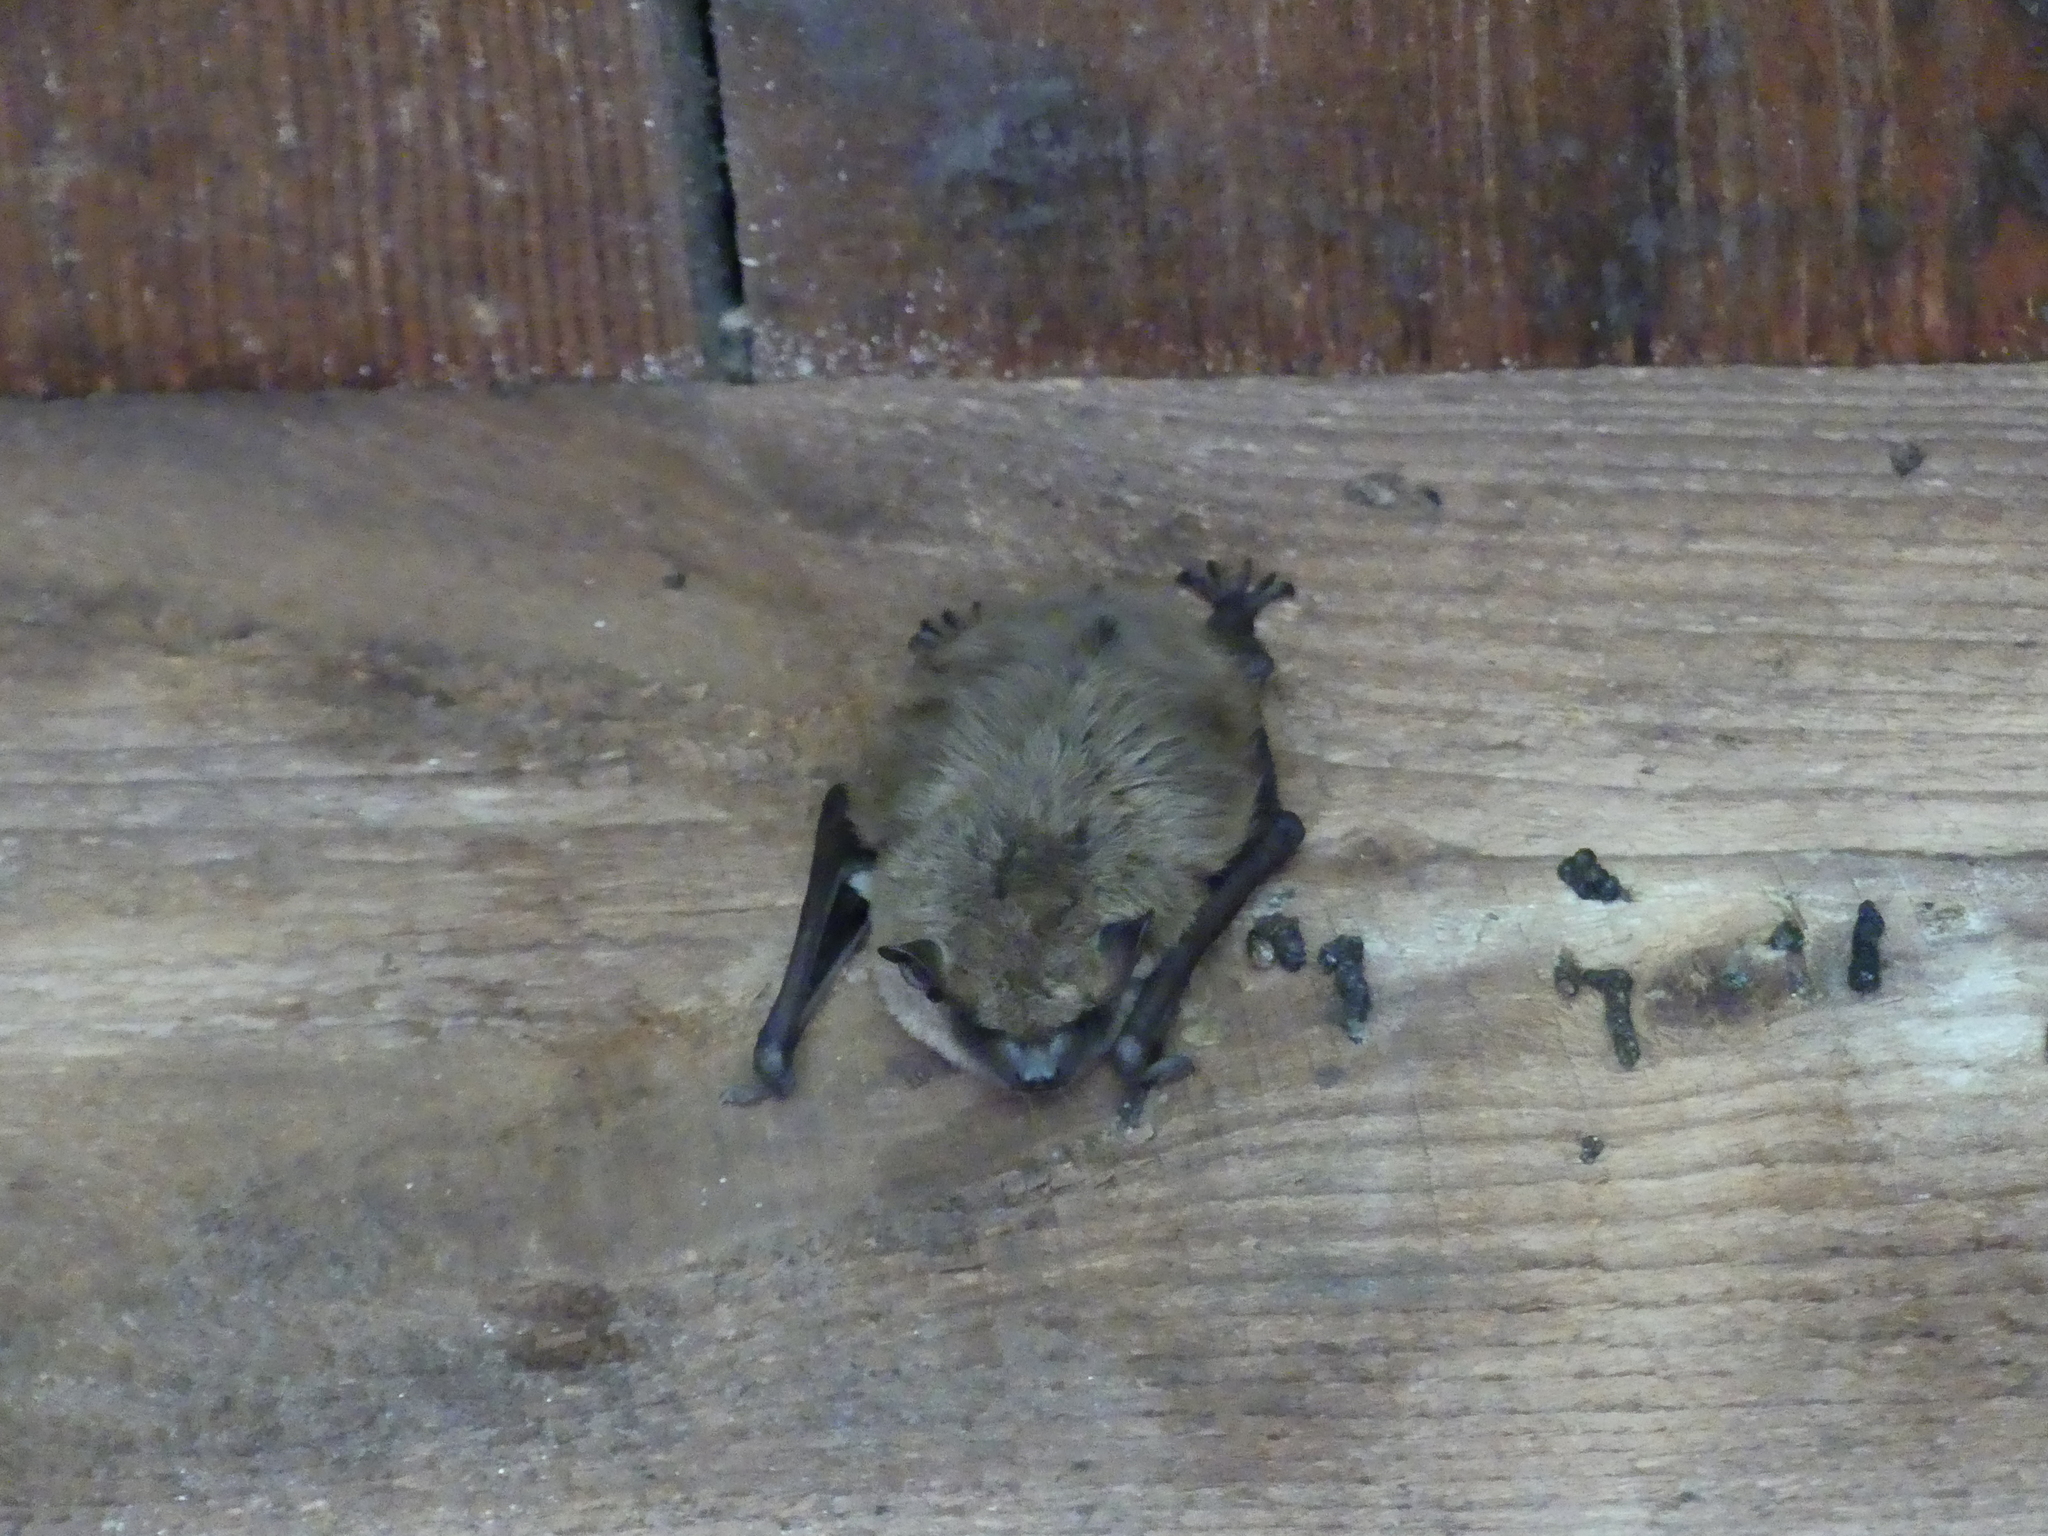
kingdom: Animalia
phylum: Chordata
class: Mammalia
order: Chiroptera
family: Vespertilionidae
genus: Eptesicus
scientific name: Eptesicus fuscus
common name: Big brown bat
